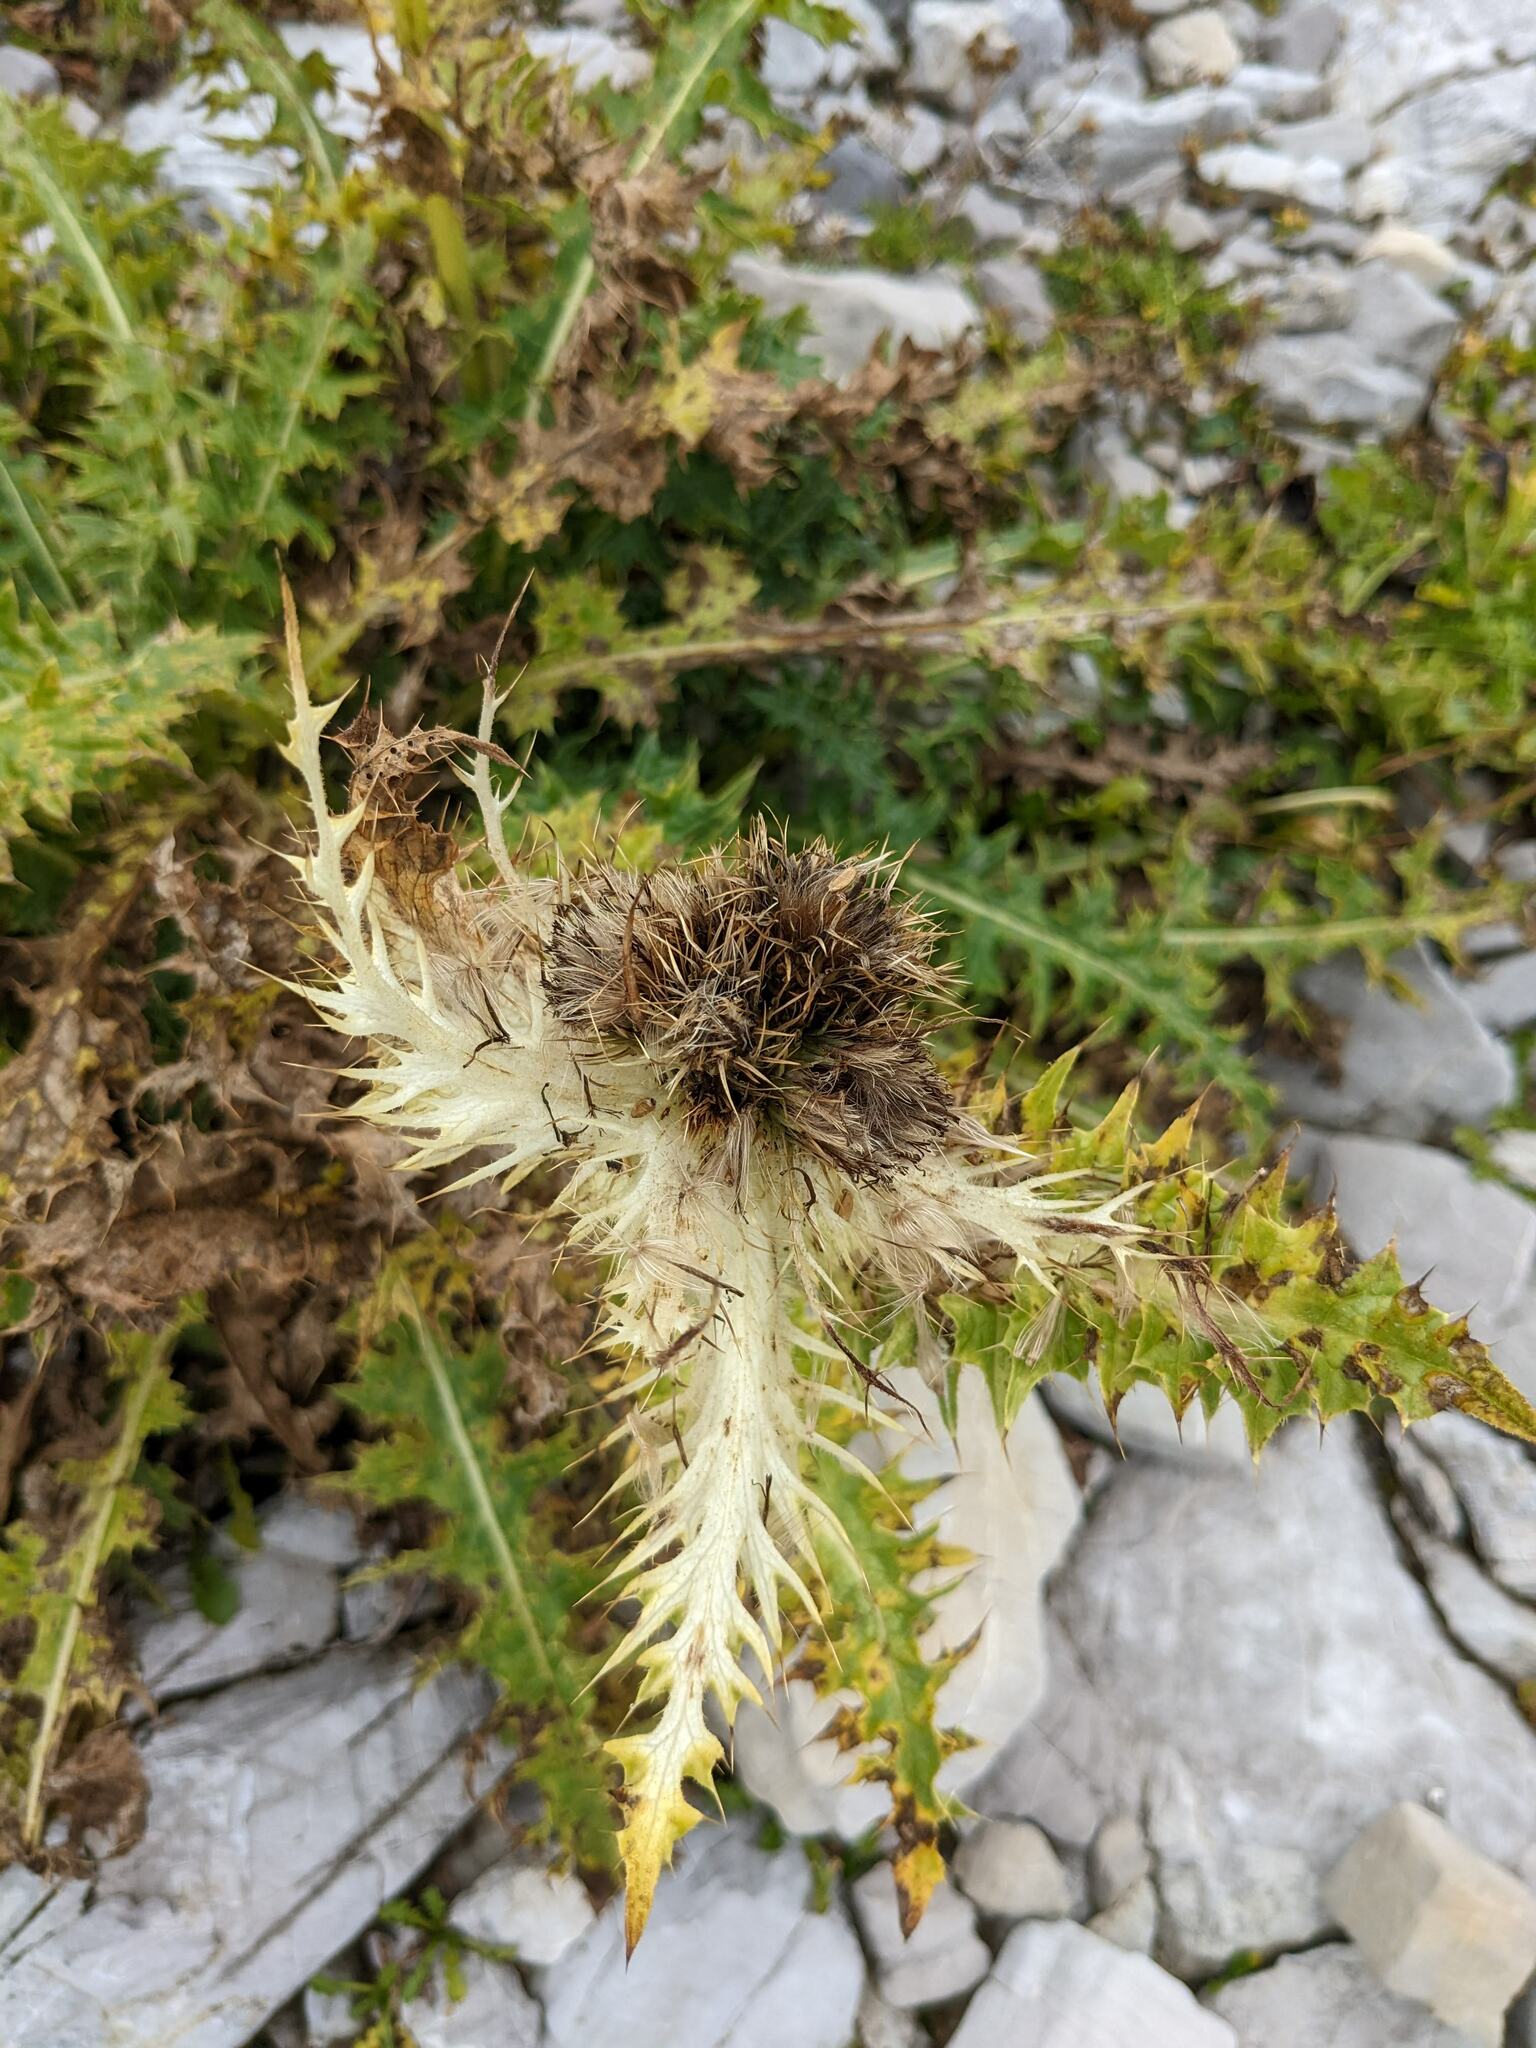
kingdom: Plantae
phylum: Tracheophyta
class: Magnoliopsida
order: Asterales
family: Asteraceae
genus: Cirsium
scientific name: Cirsium spinosissimum
